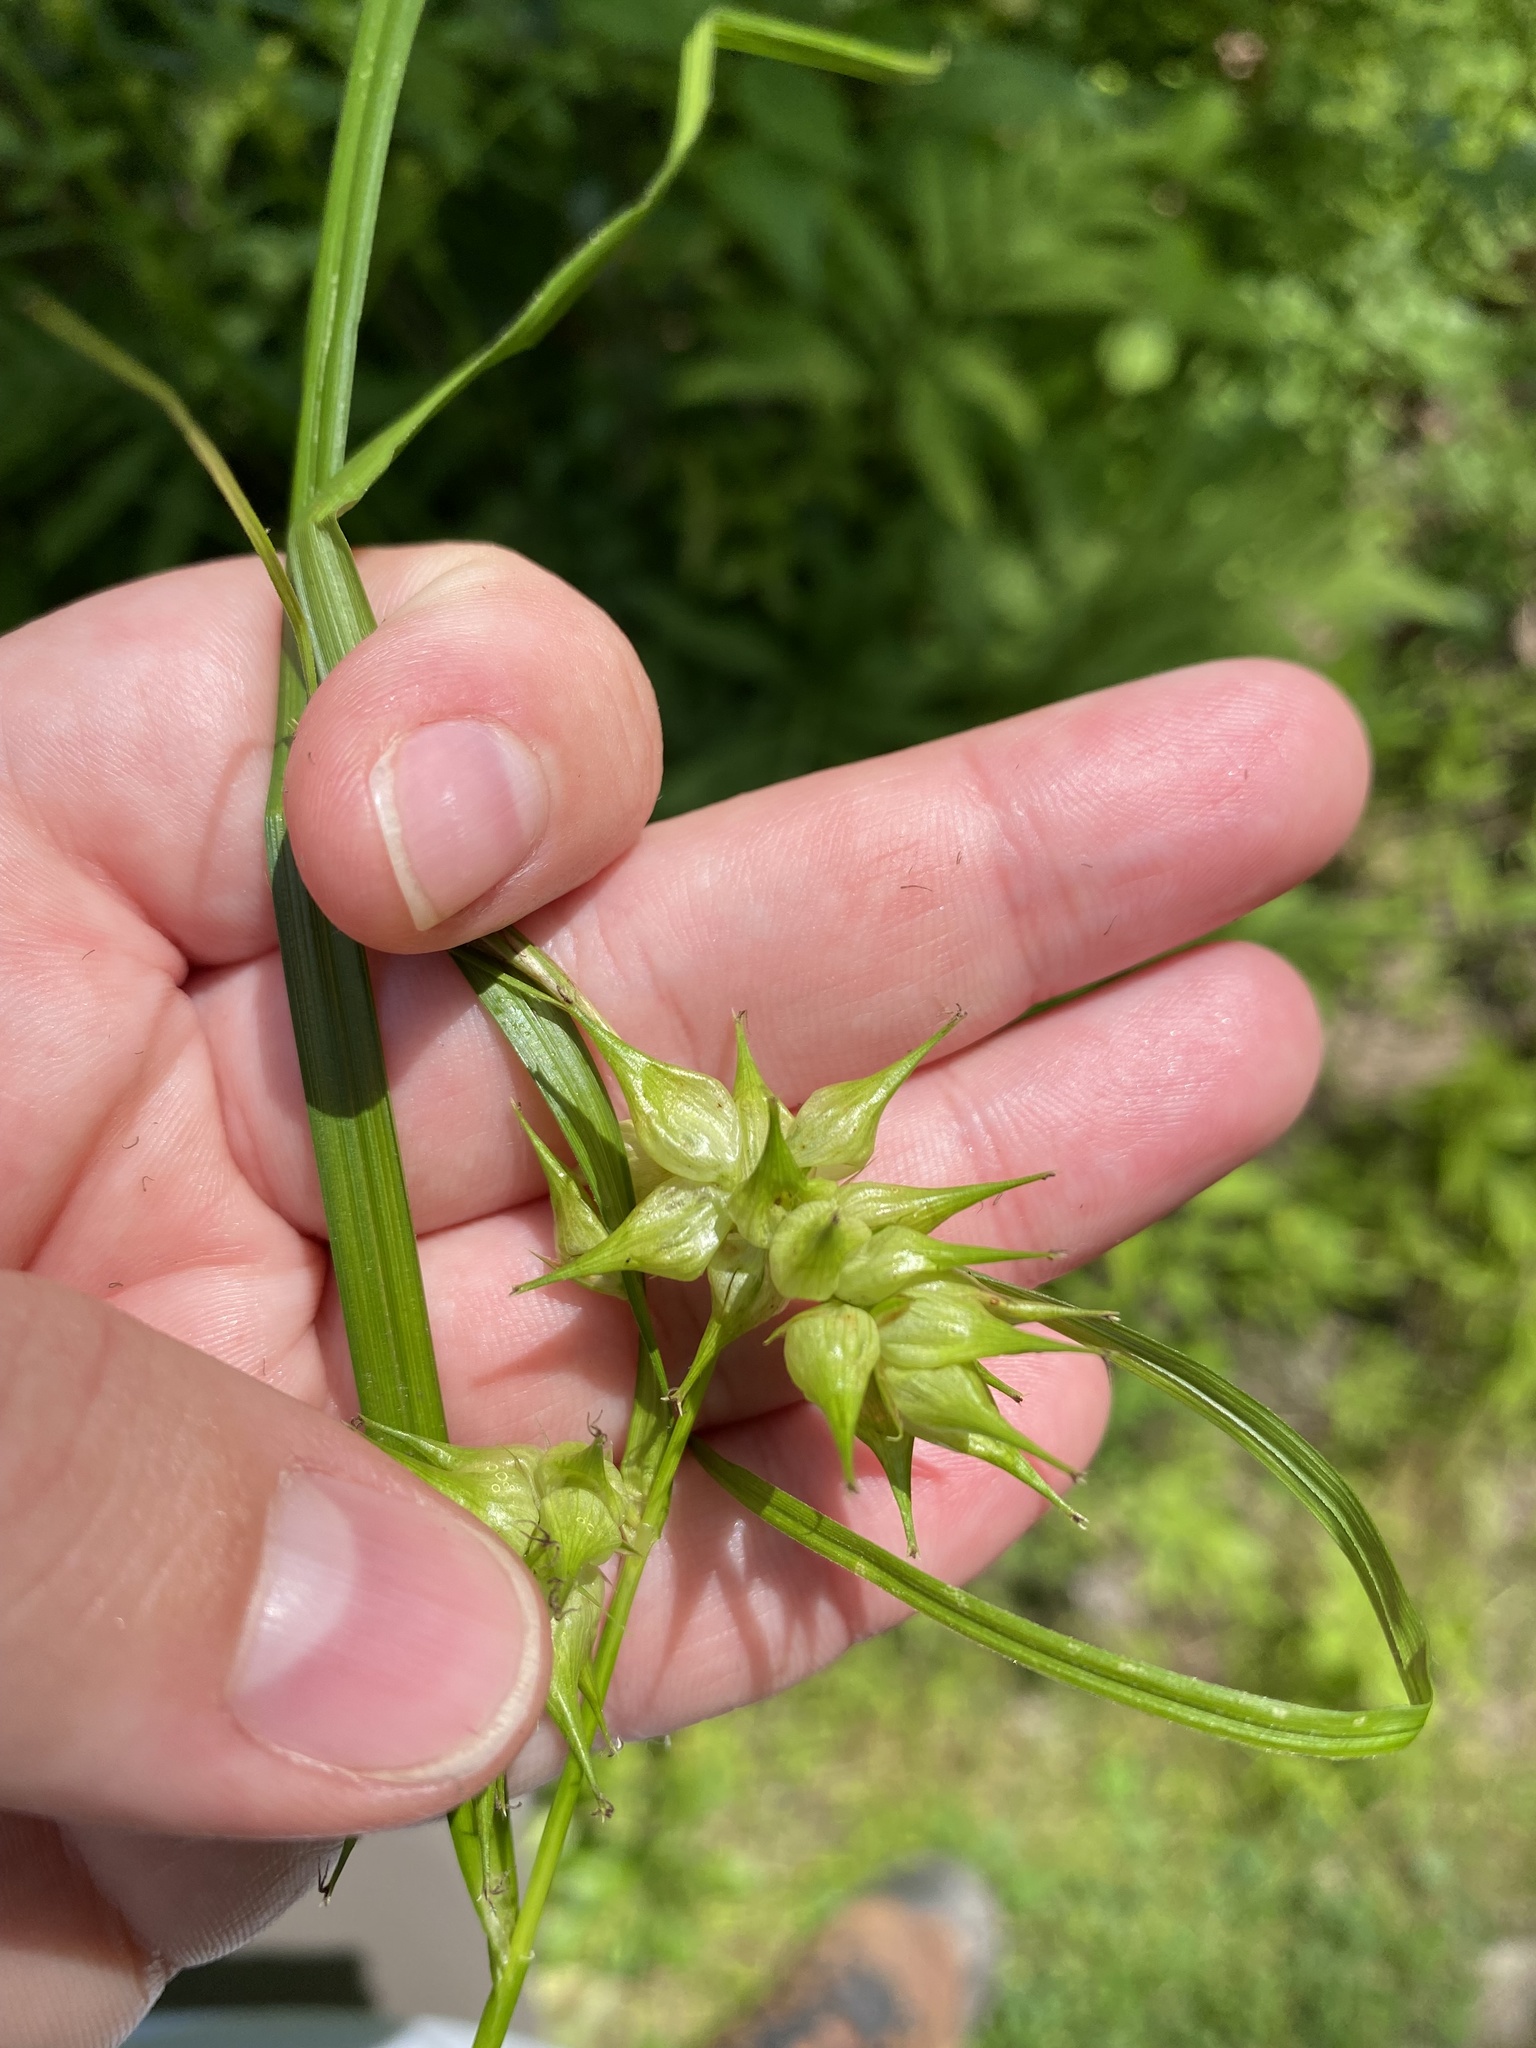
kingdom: Plantae
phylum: Tracheophyta
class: Liliopsida
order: Poales
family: Cyperaceae
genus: Carex
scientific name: Carex intumescens
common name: Greater bladder sedge
